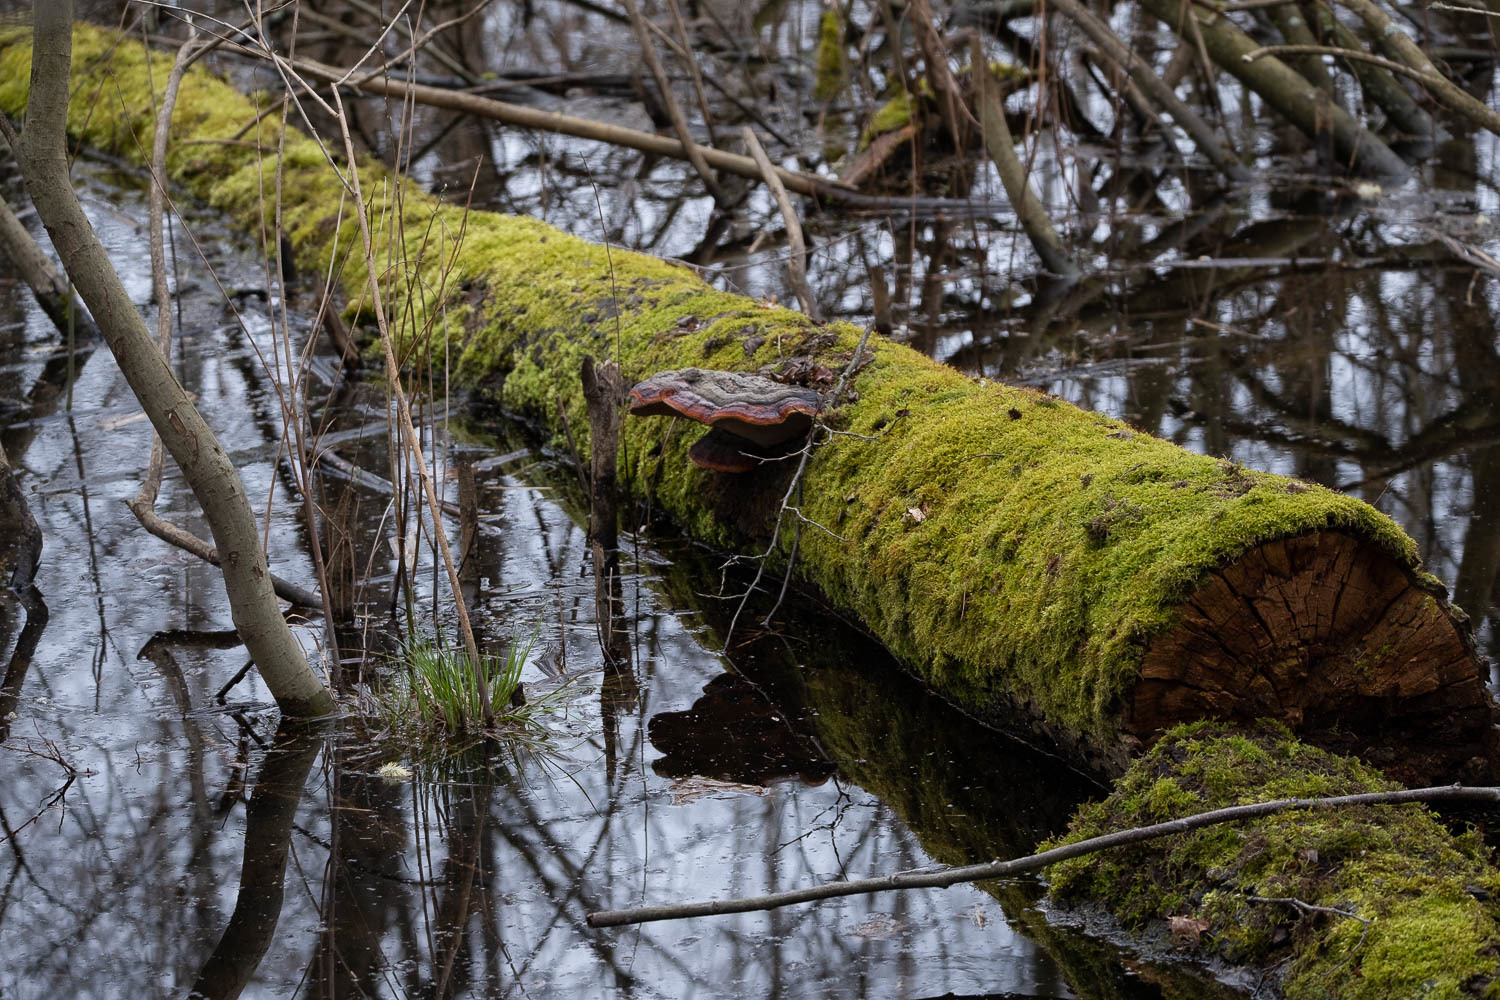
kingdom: Fungi
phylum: Basidiomycota
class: Agaricomycetes
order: Polyporales
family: Fomitopsidaceae
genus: Fomitopsis
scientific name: Fomitopsis pinicola
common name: Red-belted bracket
